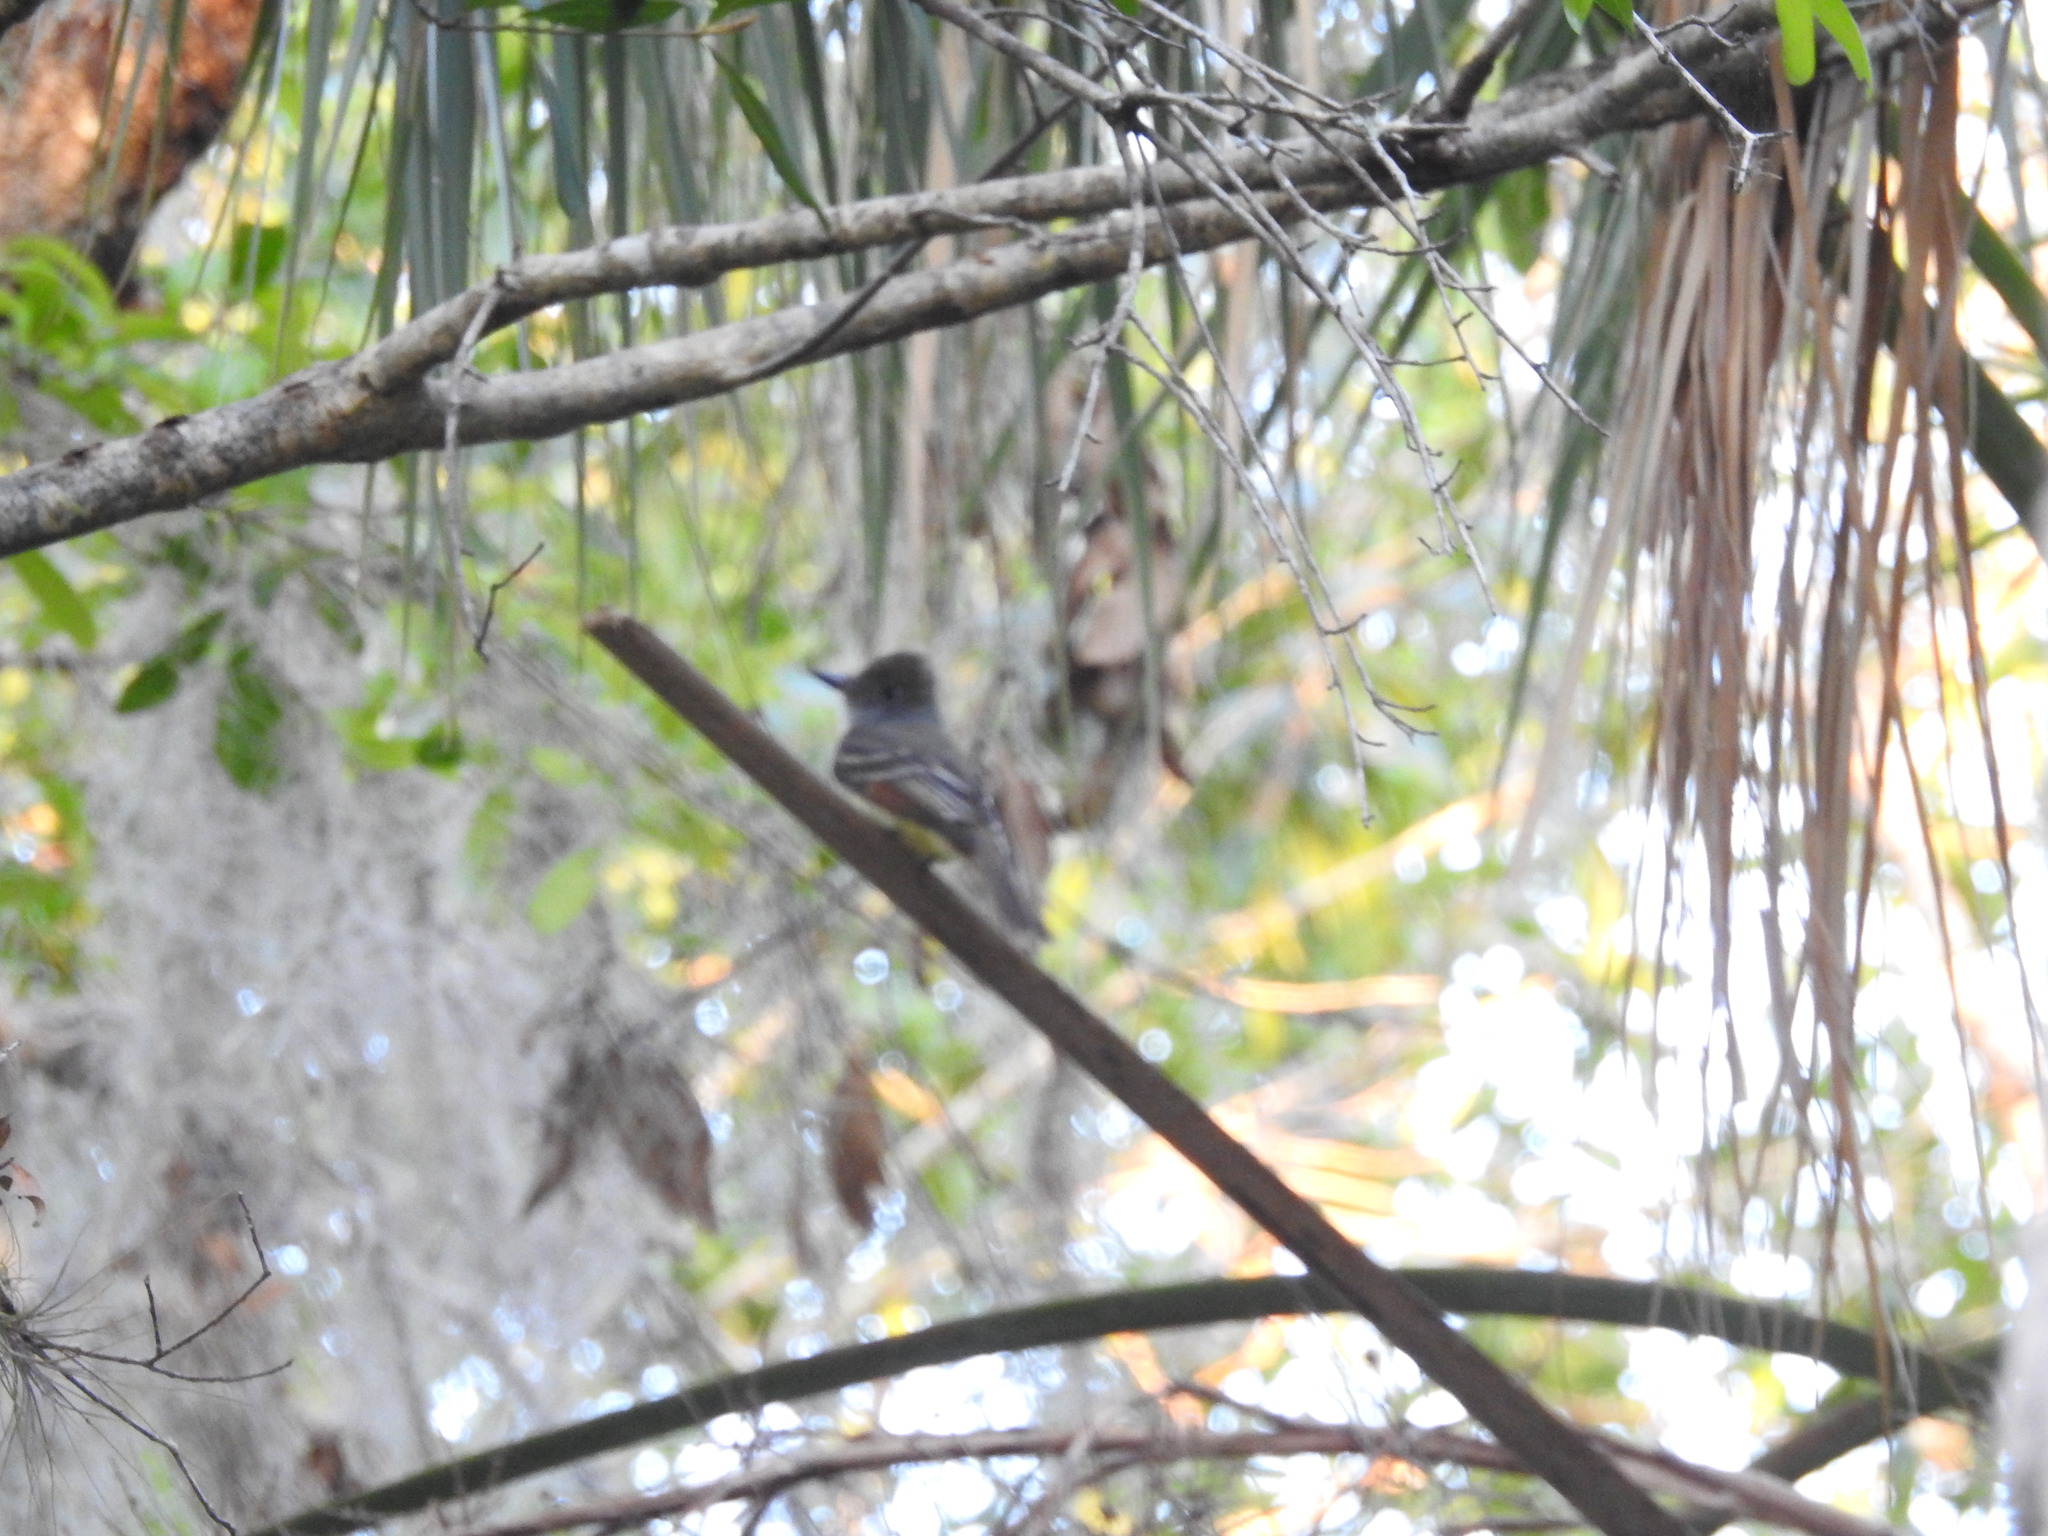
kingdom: Animalia
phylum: Chordata
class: Aves
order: Passeriformes
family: Tyrannidae
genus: Myiarchus
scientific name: Myiarchus crinitus
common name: Great crested flycatcher
